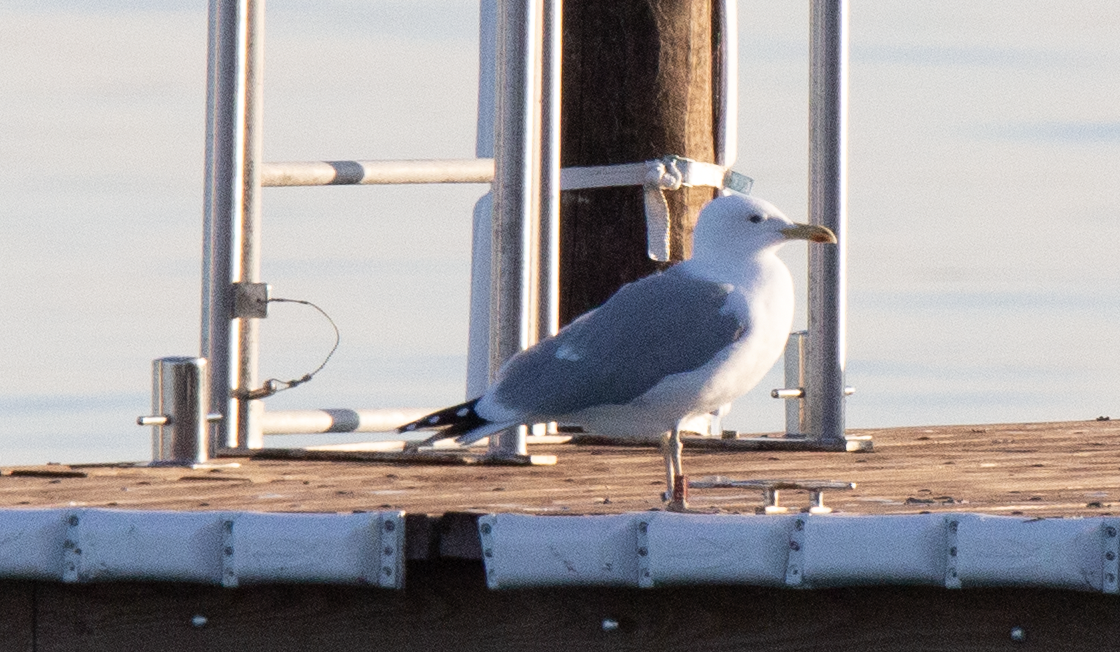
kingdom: Animalia
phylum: Chordata
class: Aves
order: Charadriiformes
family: Laridae
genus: Larus
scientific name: Larus cachinnans
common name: Caspian gull
